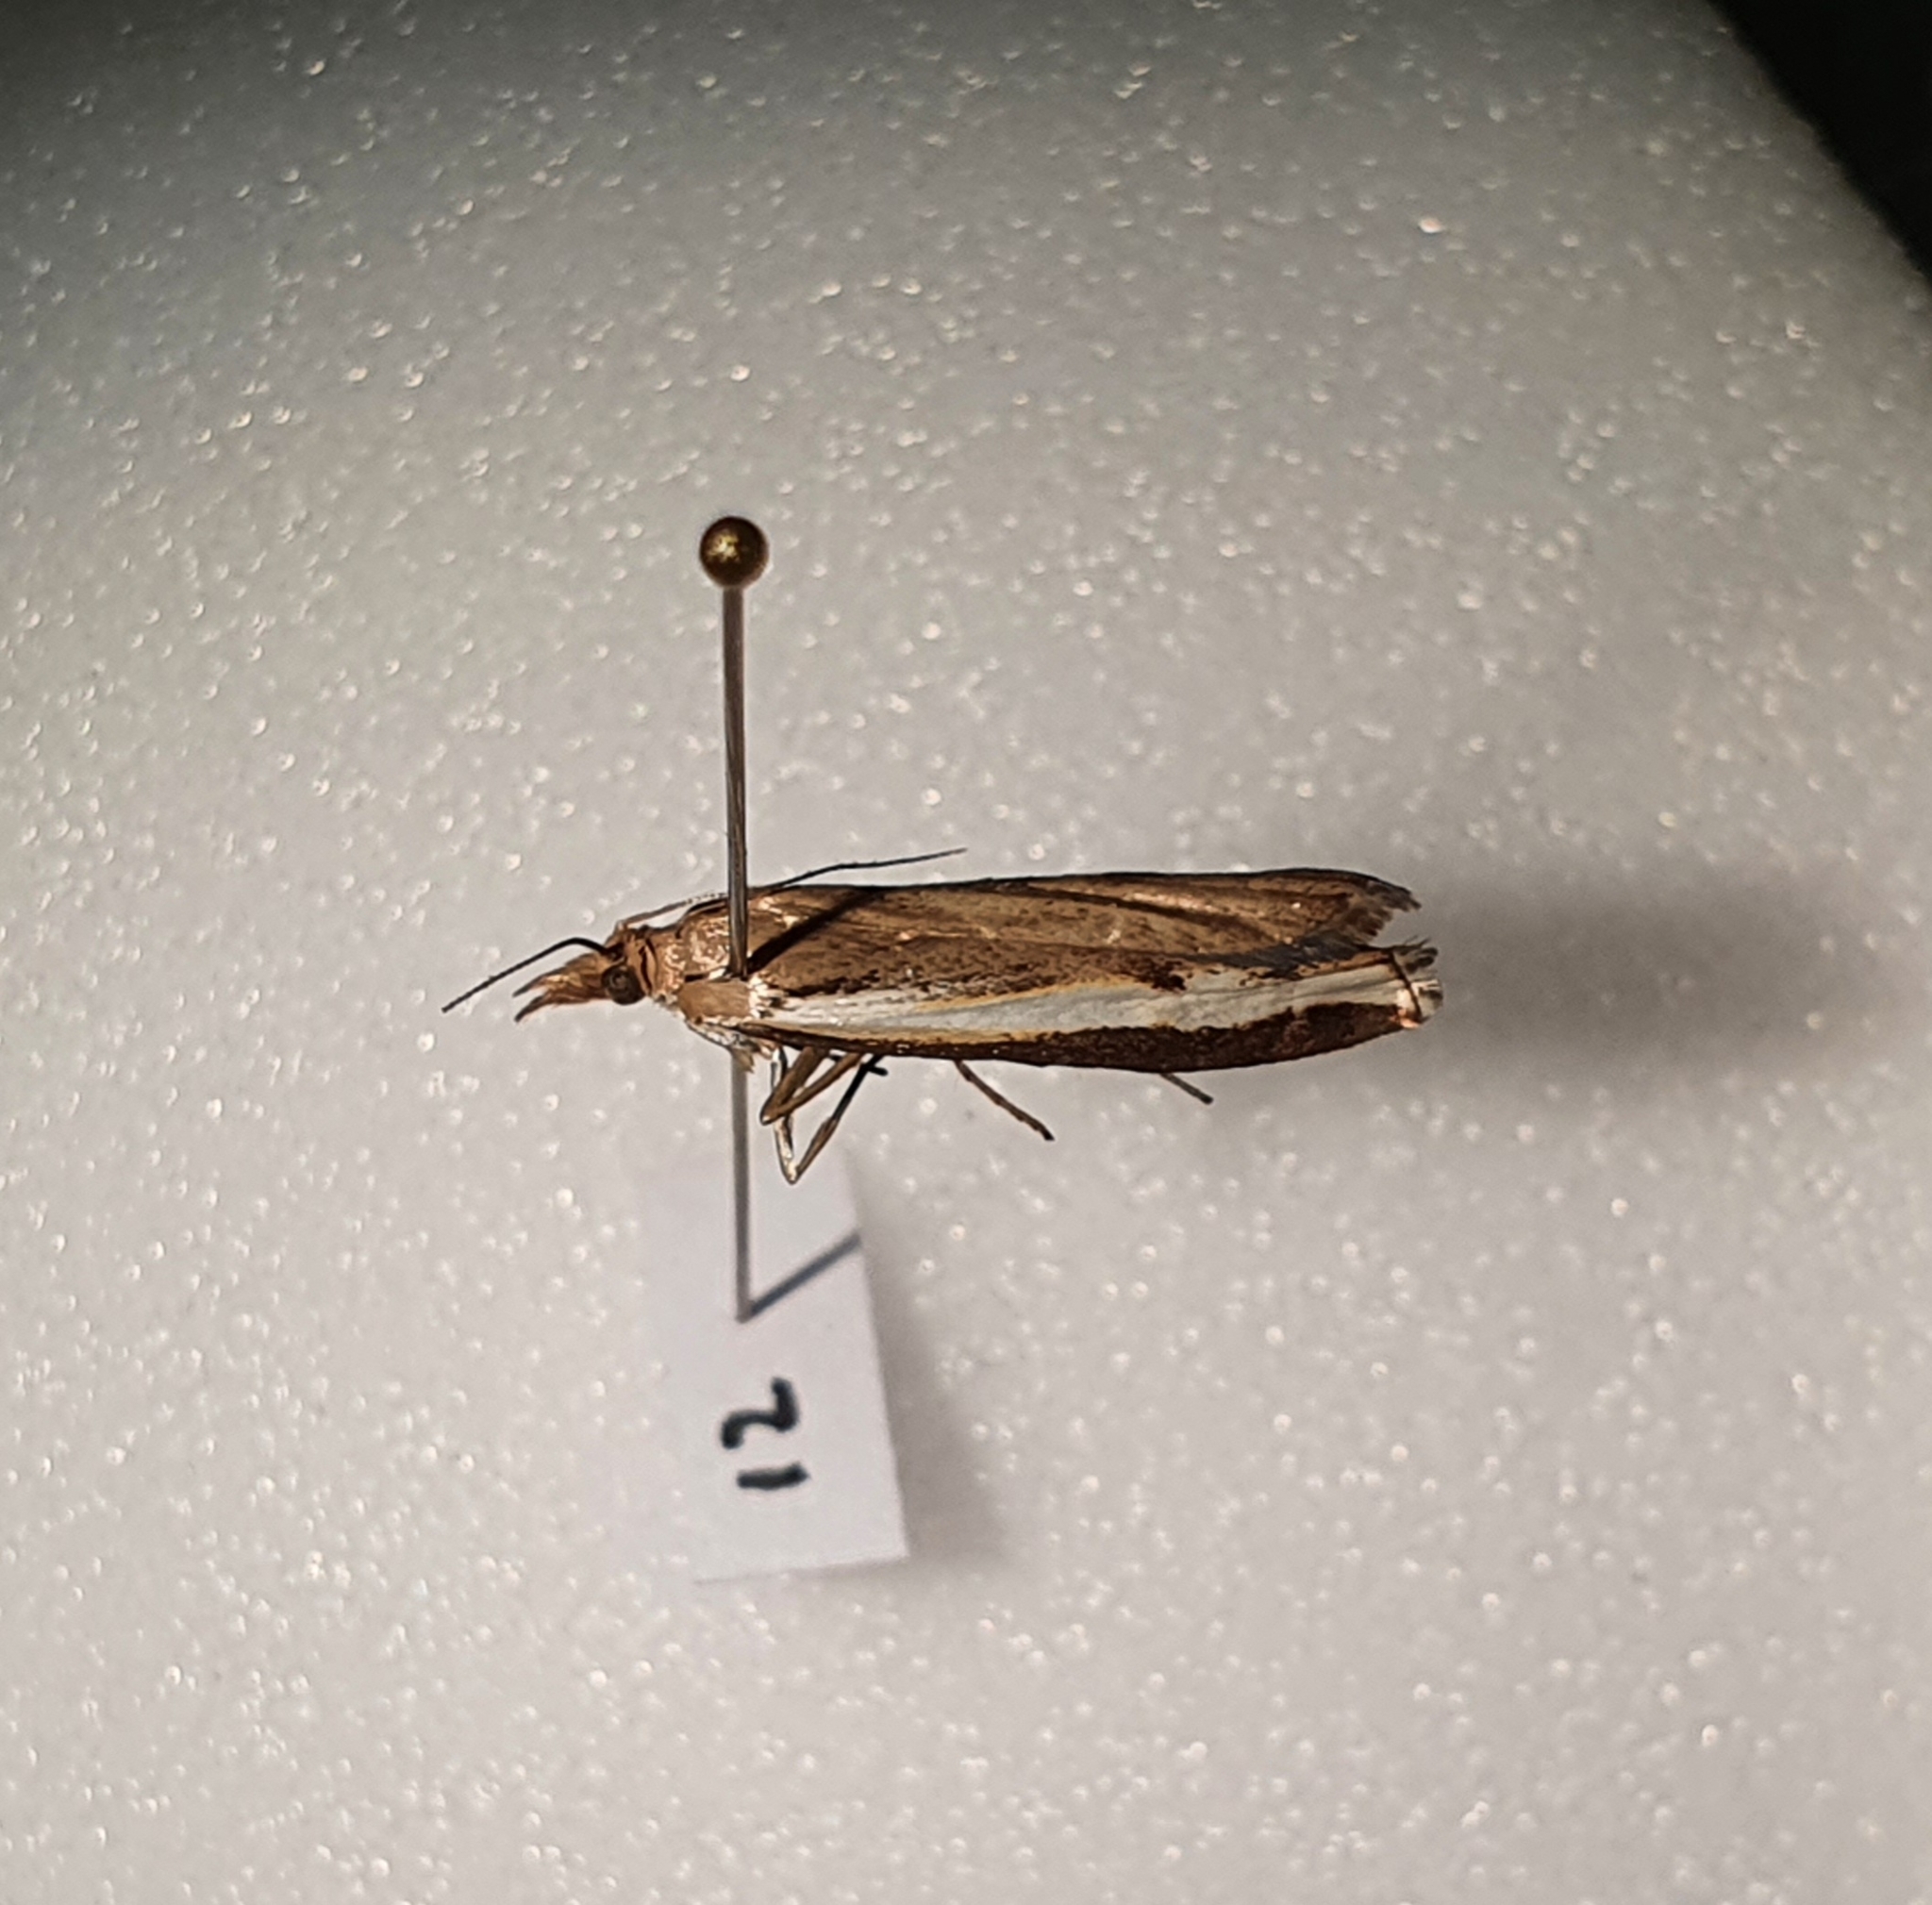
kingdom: Animalia
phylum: Arthropoda
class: Insecta
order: Lepidoptera
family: Crambidae
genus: Orocrambus
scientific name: Orocrambus flexuosellus
